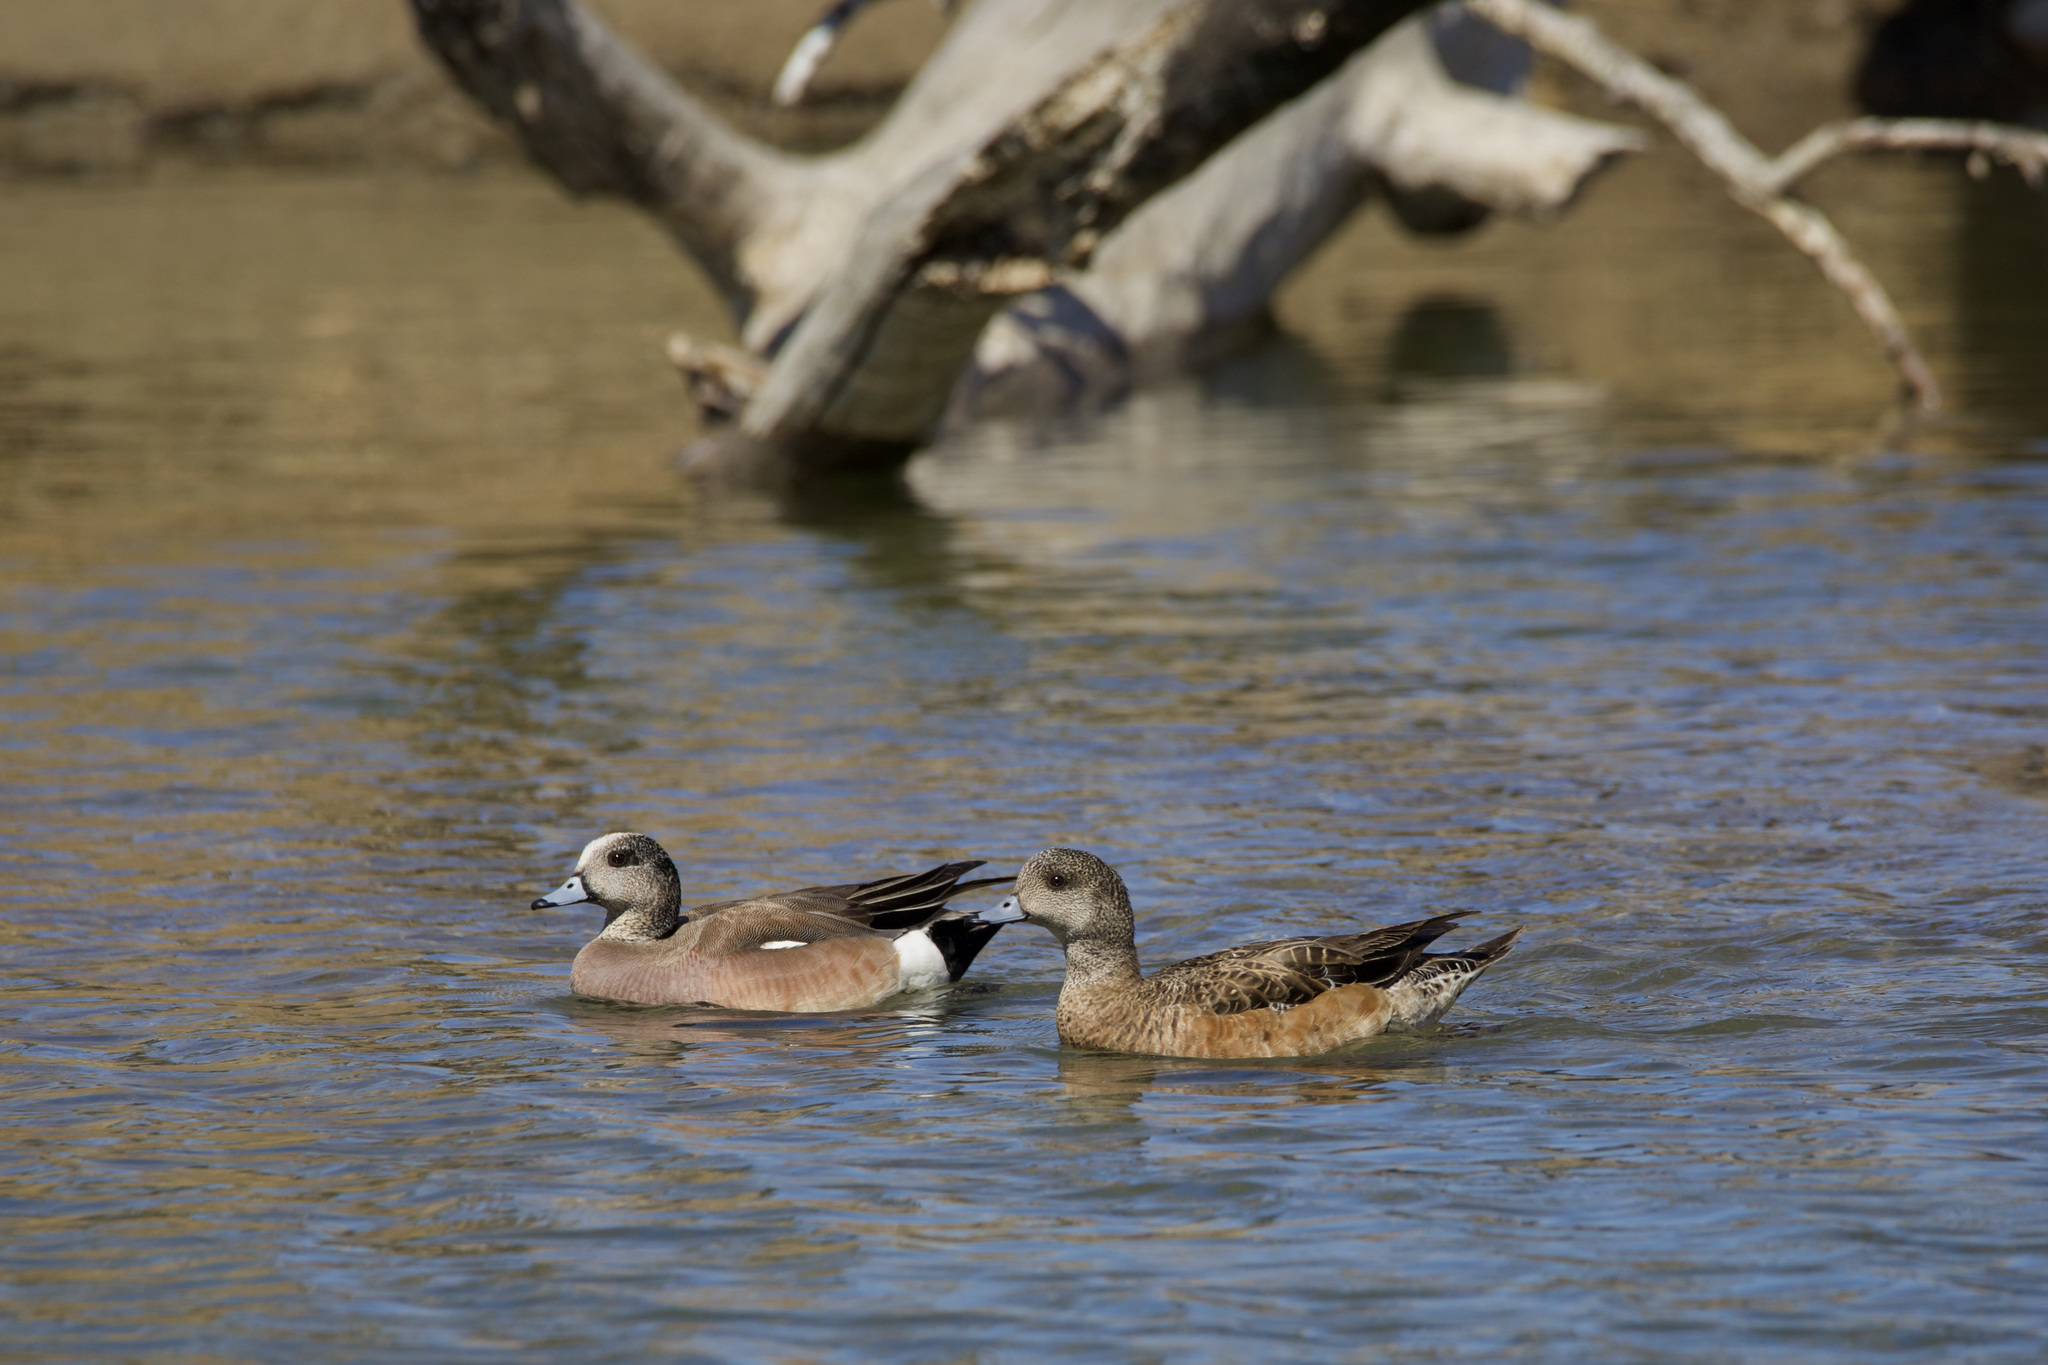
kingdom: Animalia
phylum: Chordata
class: Aves
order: Anseriformes
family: Anatidae
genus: Mareca
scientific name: Mareca americana
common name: American wigeon
